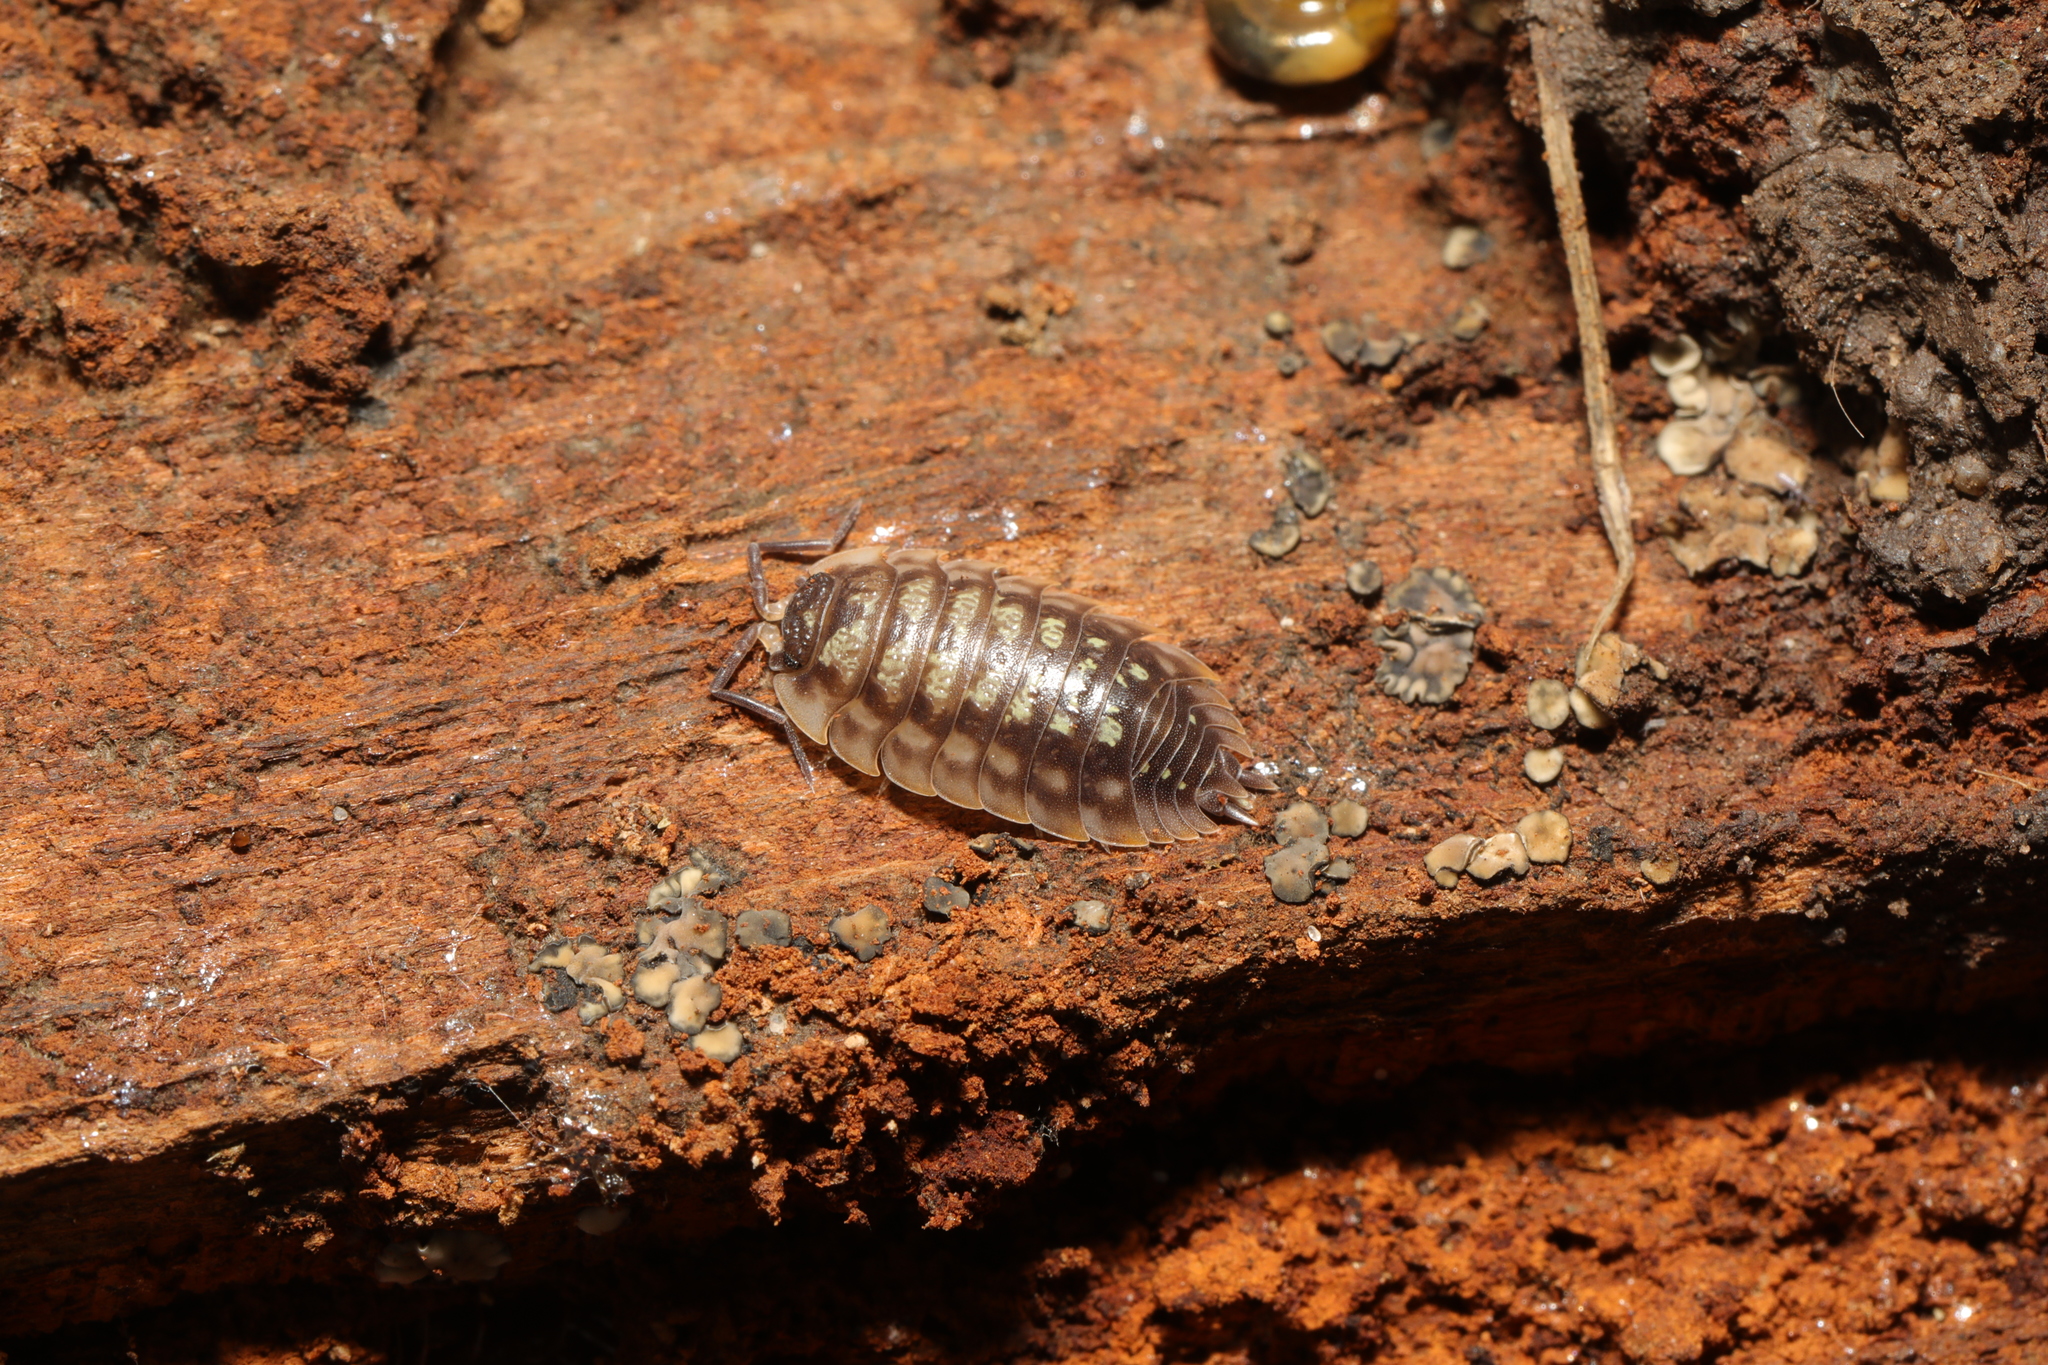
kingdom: Animalia
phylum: Arthropoda
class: Malacostraca
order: Isopoda
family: Oniscidae
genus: Oniscus
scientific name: Oniscus asellus
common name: Common shiny woodlouse
